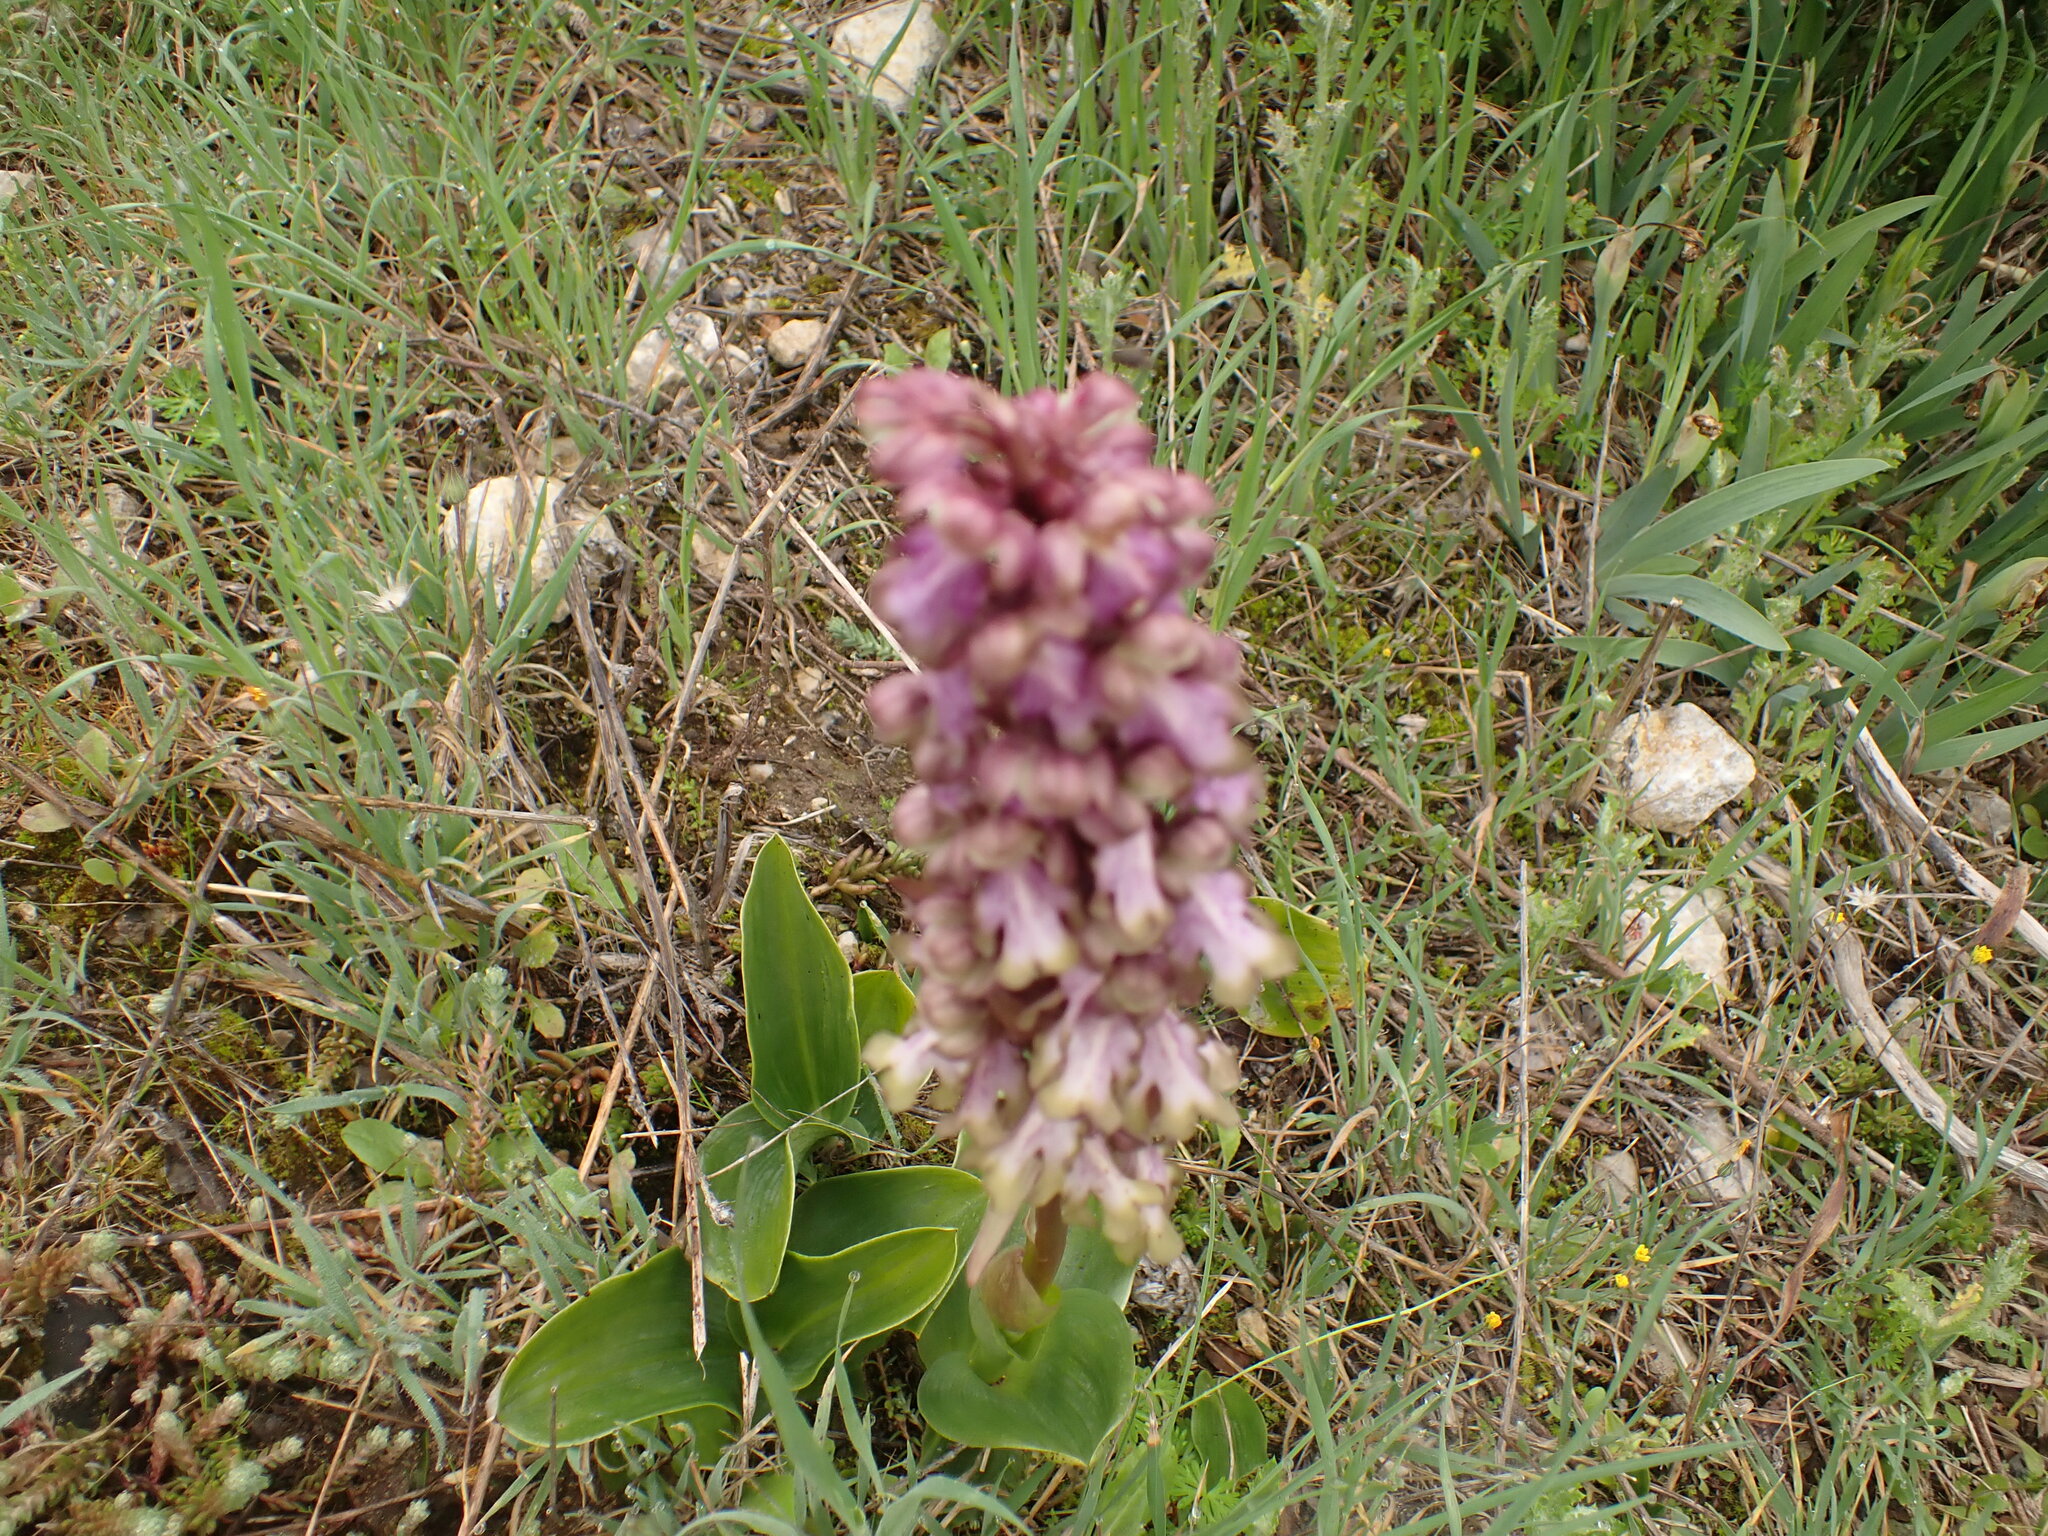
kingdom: Plantae
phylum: Tracheophyta
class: Liliopsida
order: Asparagales
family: Orchidaceae
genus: Himantoglossum
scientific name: Himantoglossum robertianum
